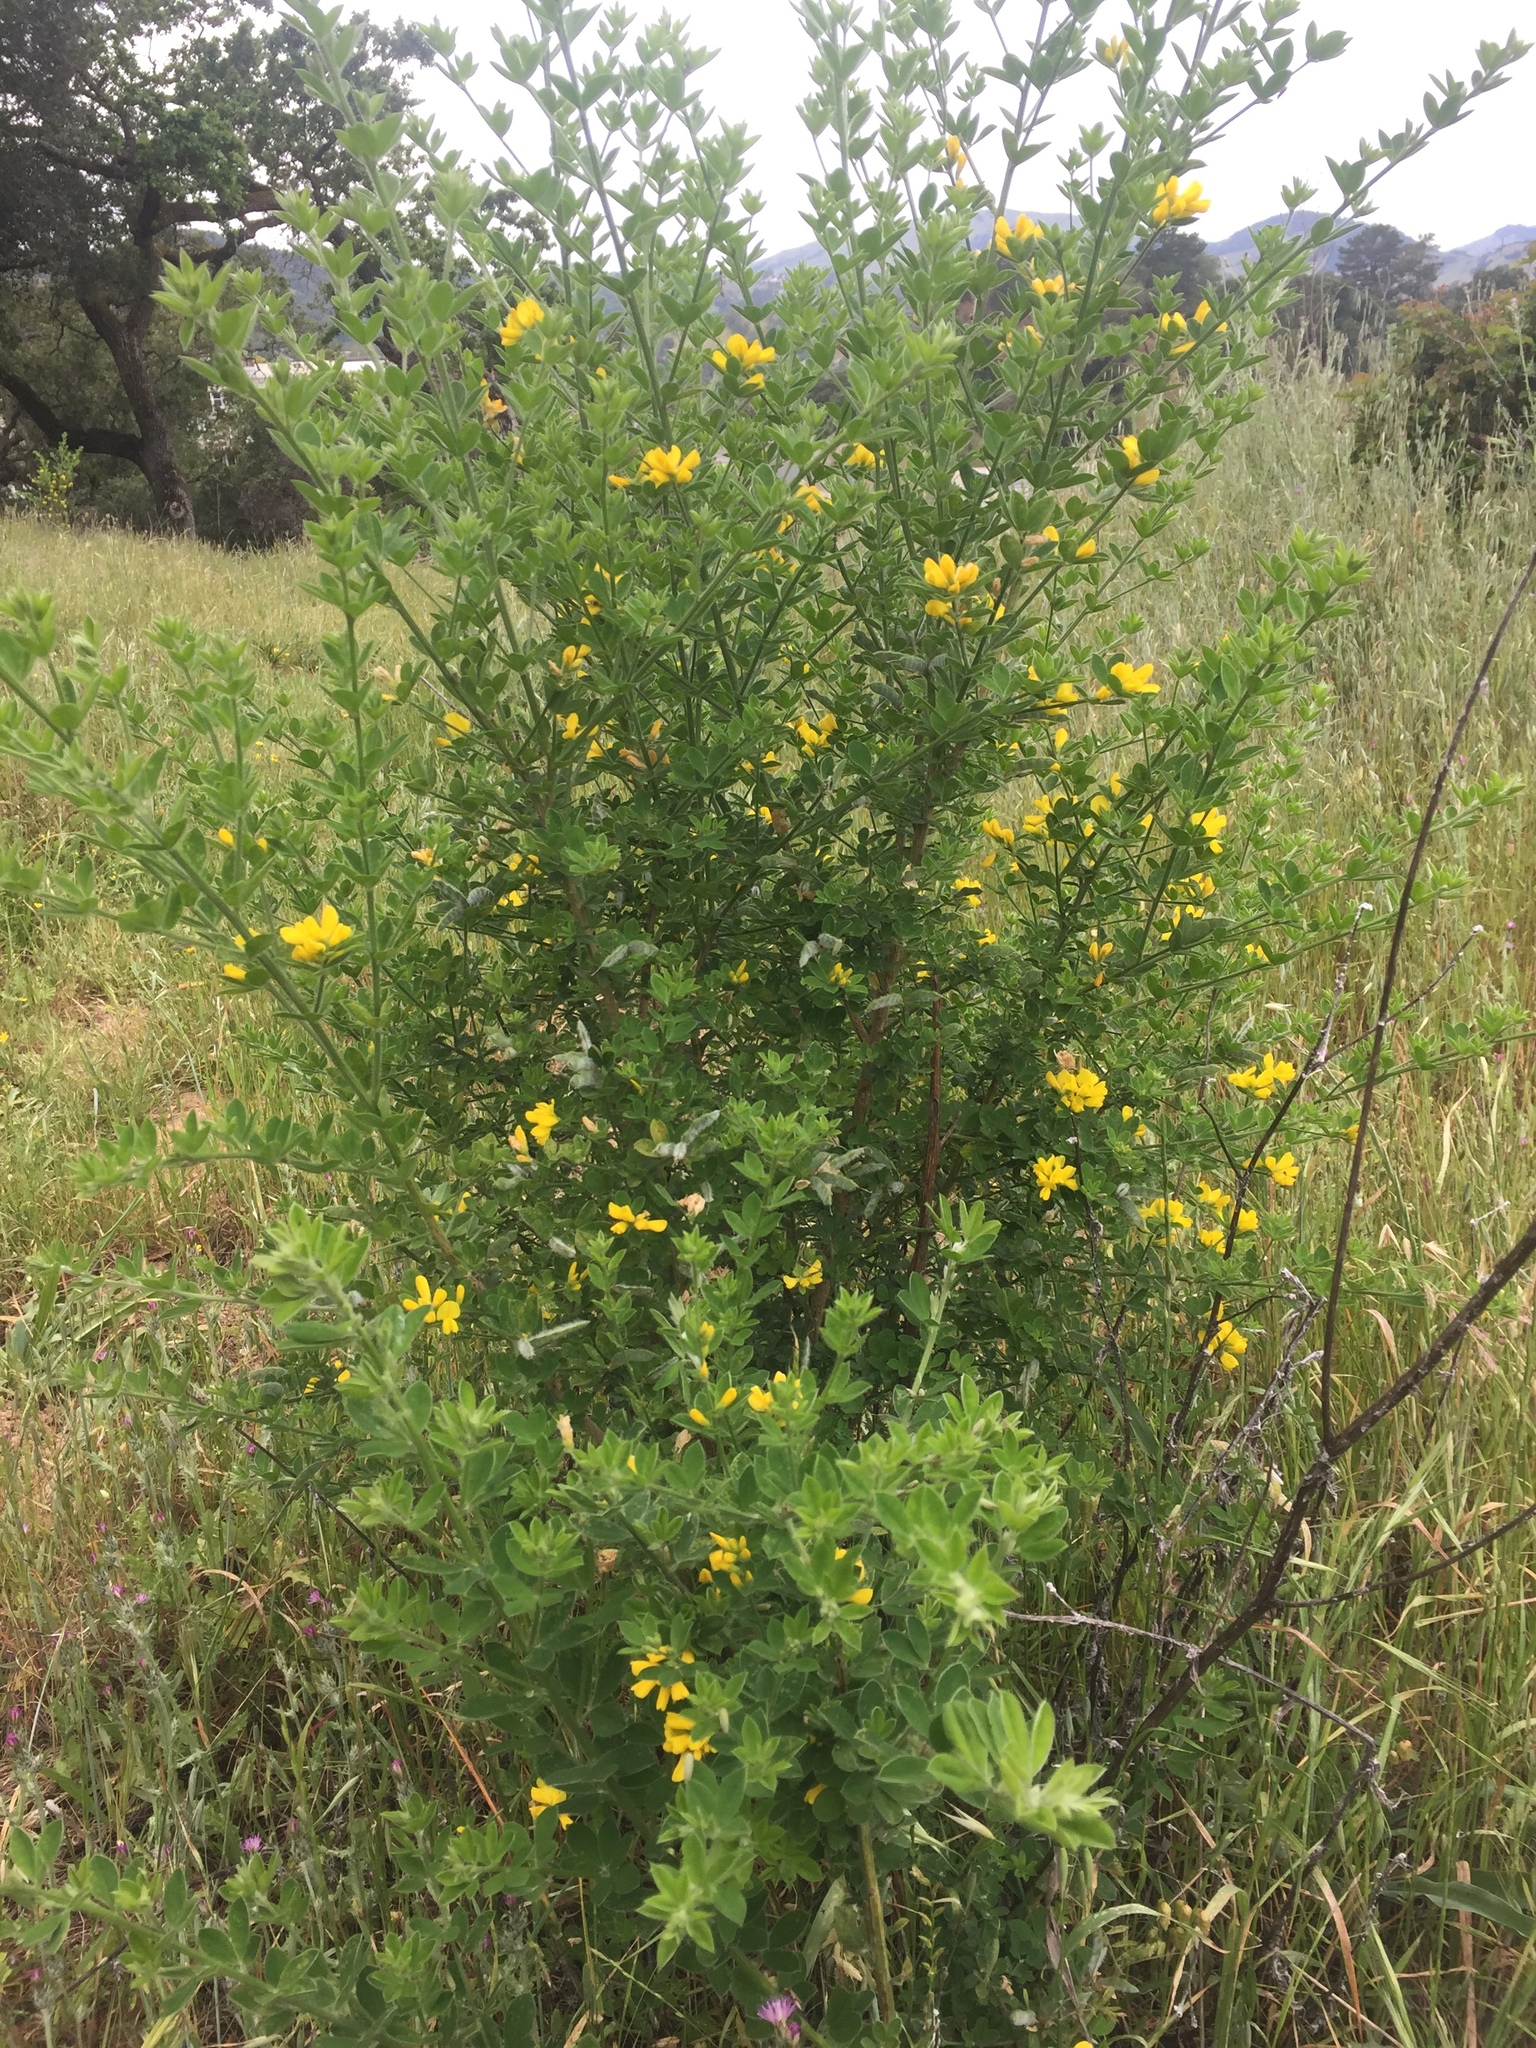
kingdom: Plantae
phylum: Tracheophyta
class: Magnoliopsida
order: Fabales
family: Fabaceae
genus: Genista
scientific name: Genista monspessulana
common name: Montpellier broom
